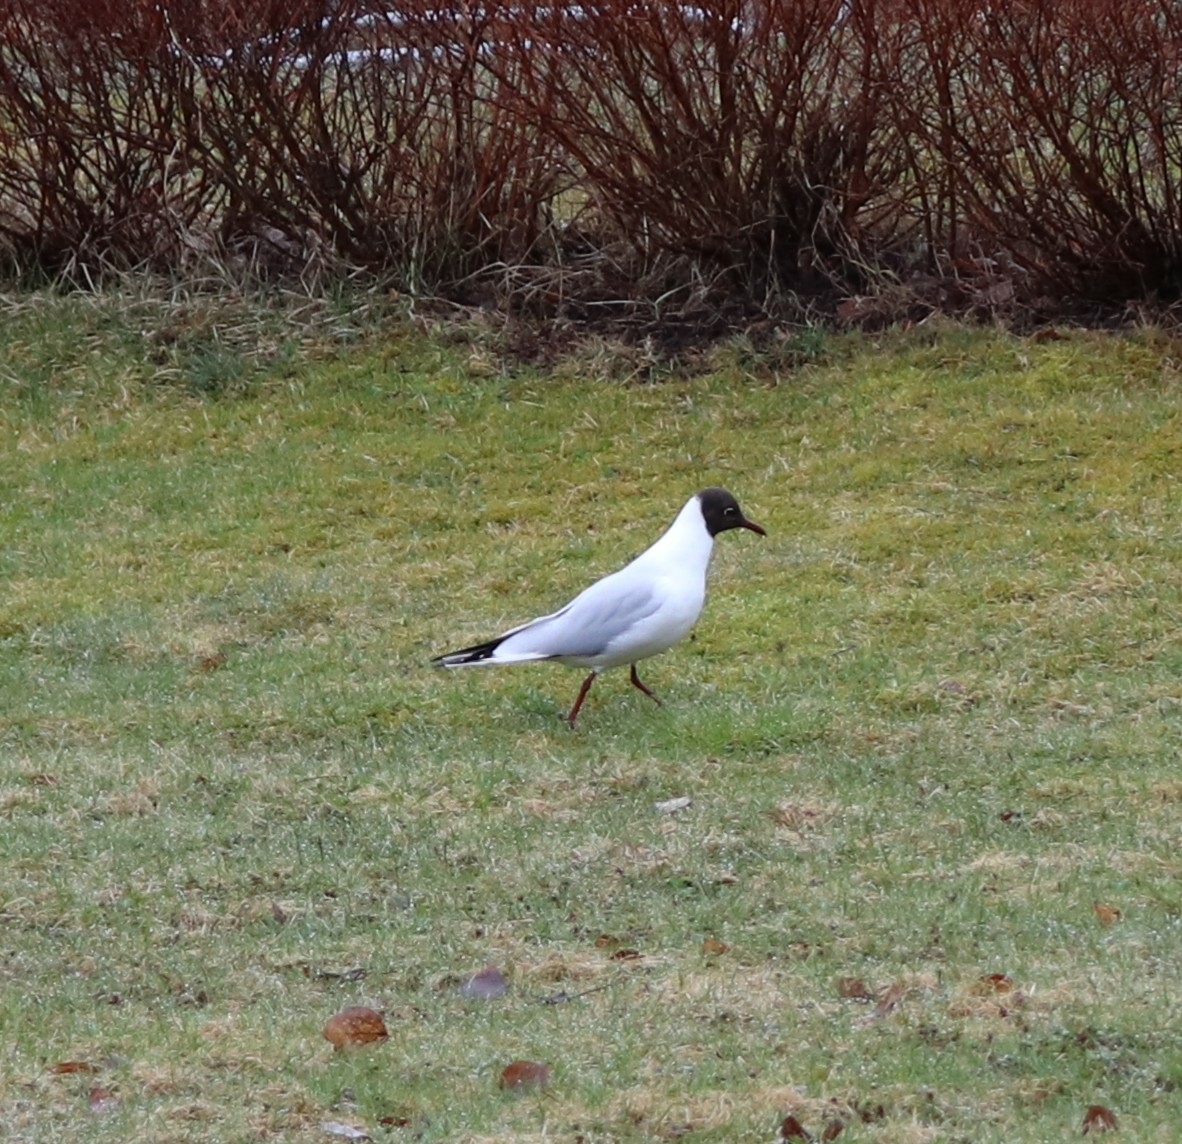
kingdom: Animalia
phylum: Chordata
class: Aves
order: Charadriiformes
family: Laridae
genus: Chroicocephalus
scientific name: Chroicocephalus ridibundus
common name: Black-headed gull
